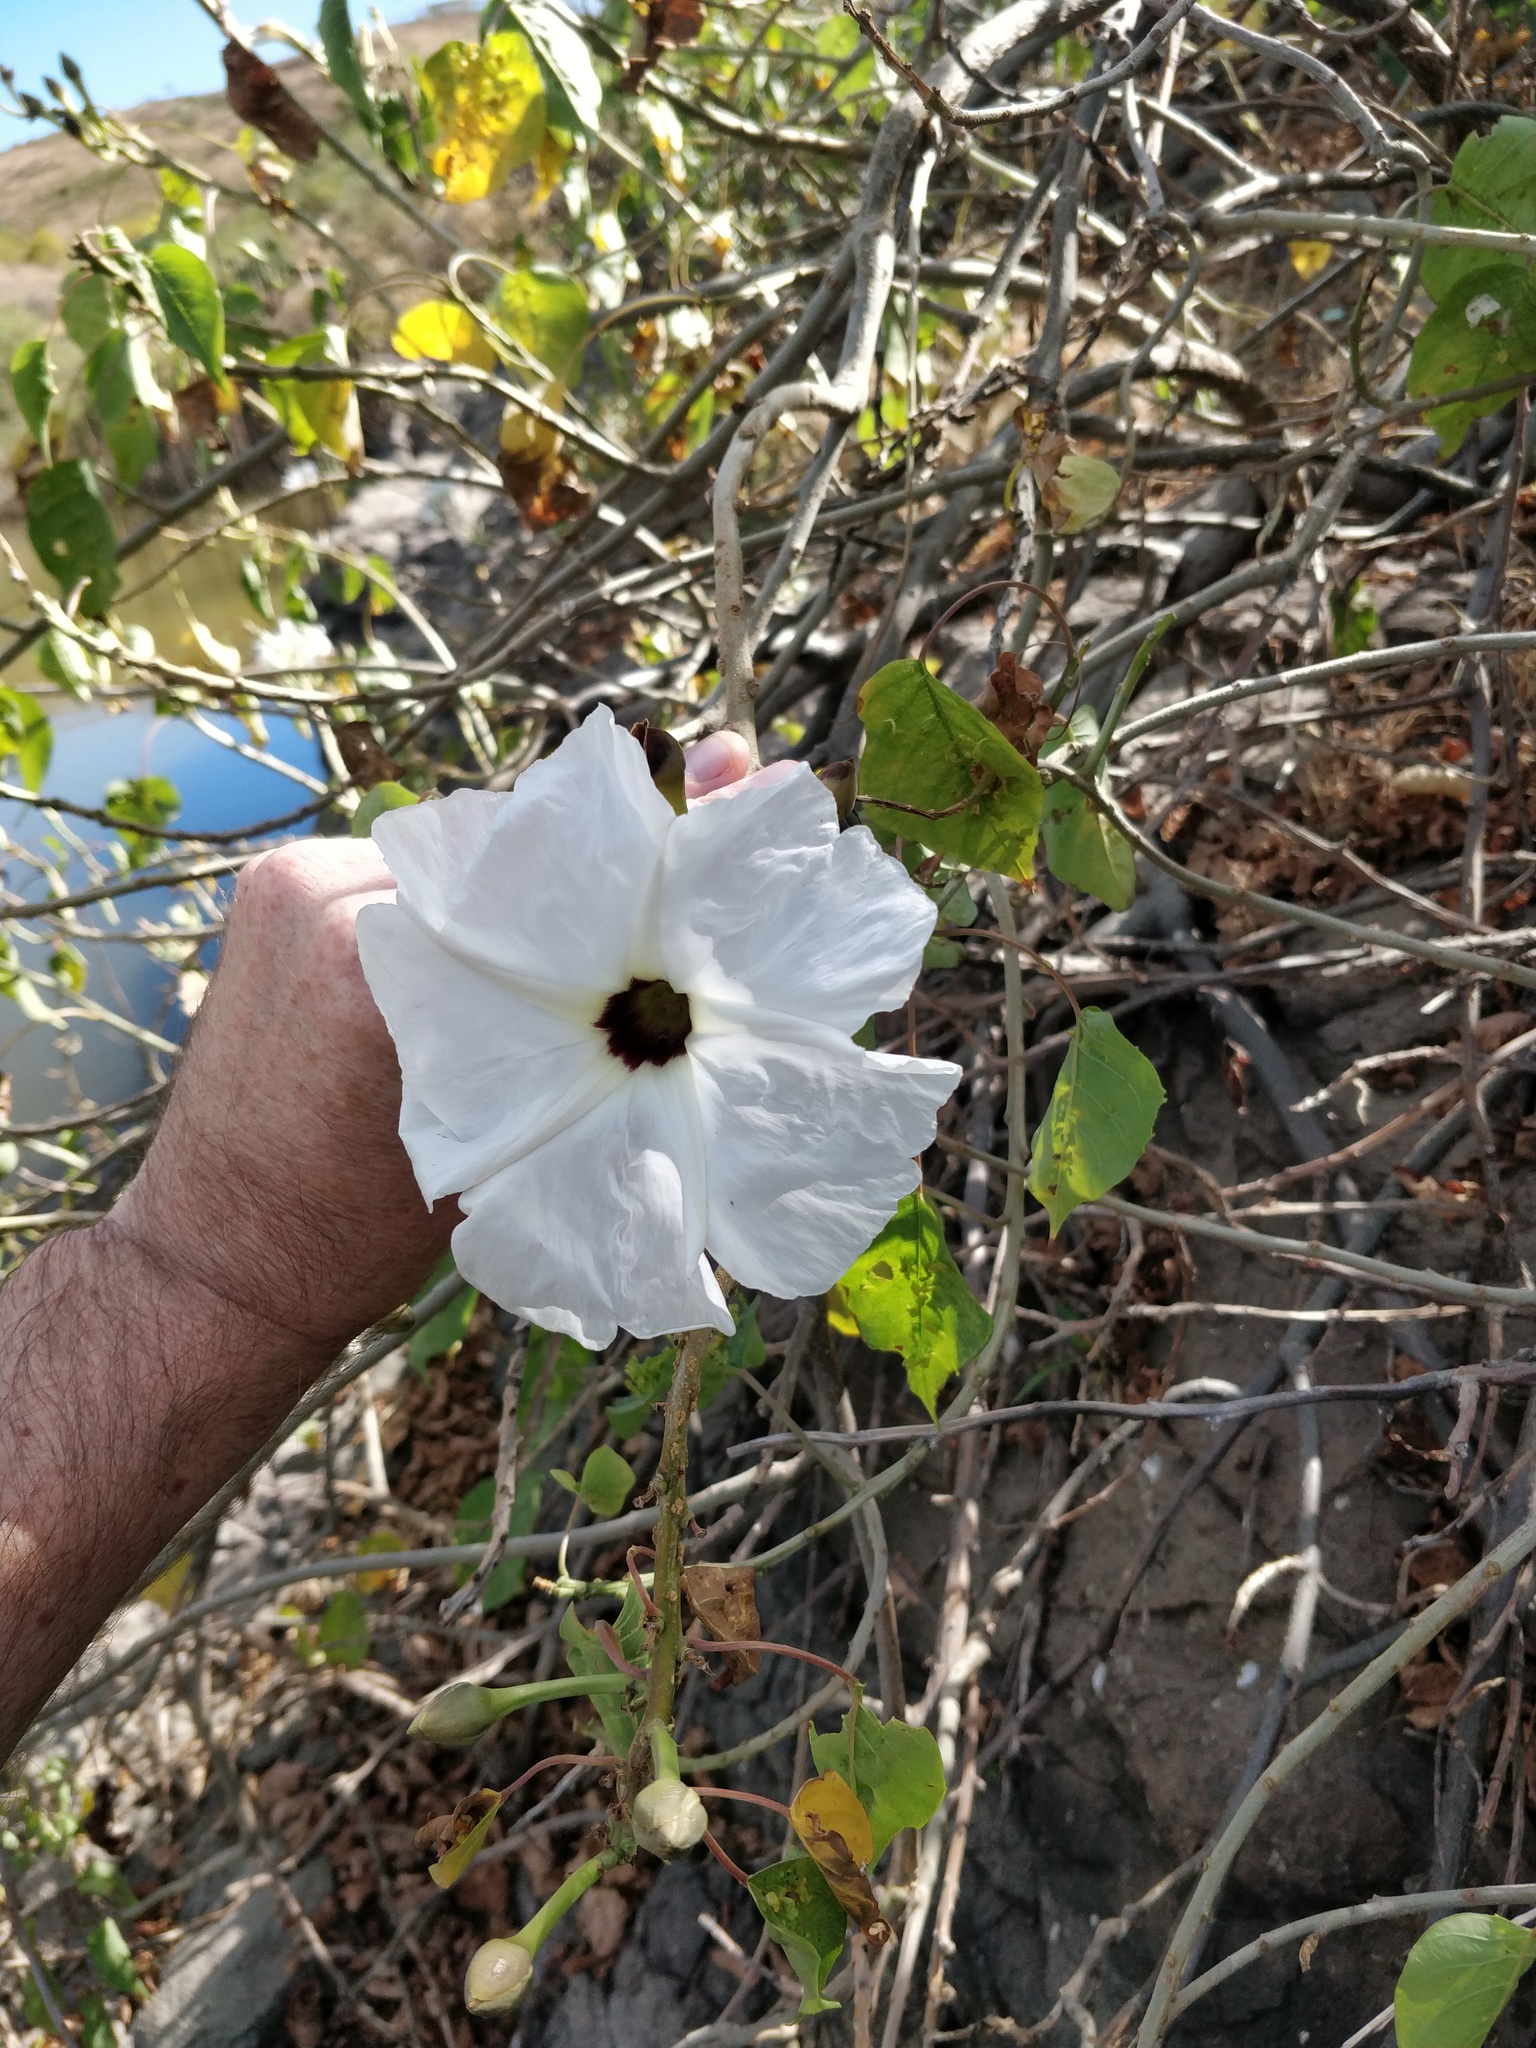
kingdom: Plantae
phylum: Tracheophyta
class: Magnoliopsida
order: Solanales
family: Convolvulaceae
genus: Ipomoea
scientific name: Ipomoea pauciflora
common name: Tree morningglory
